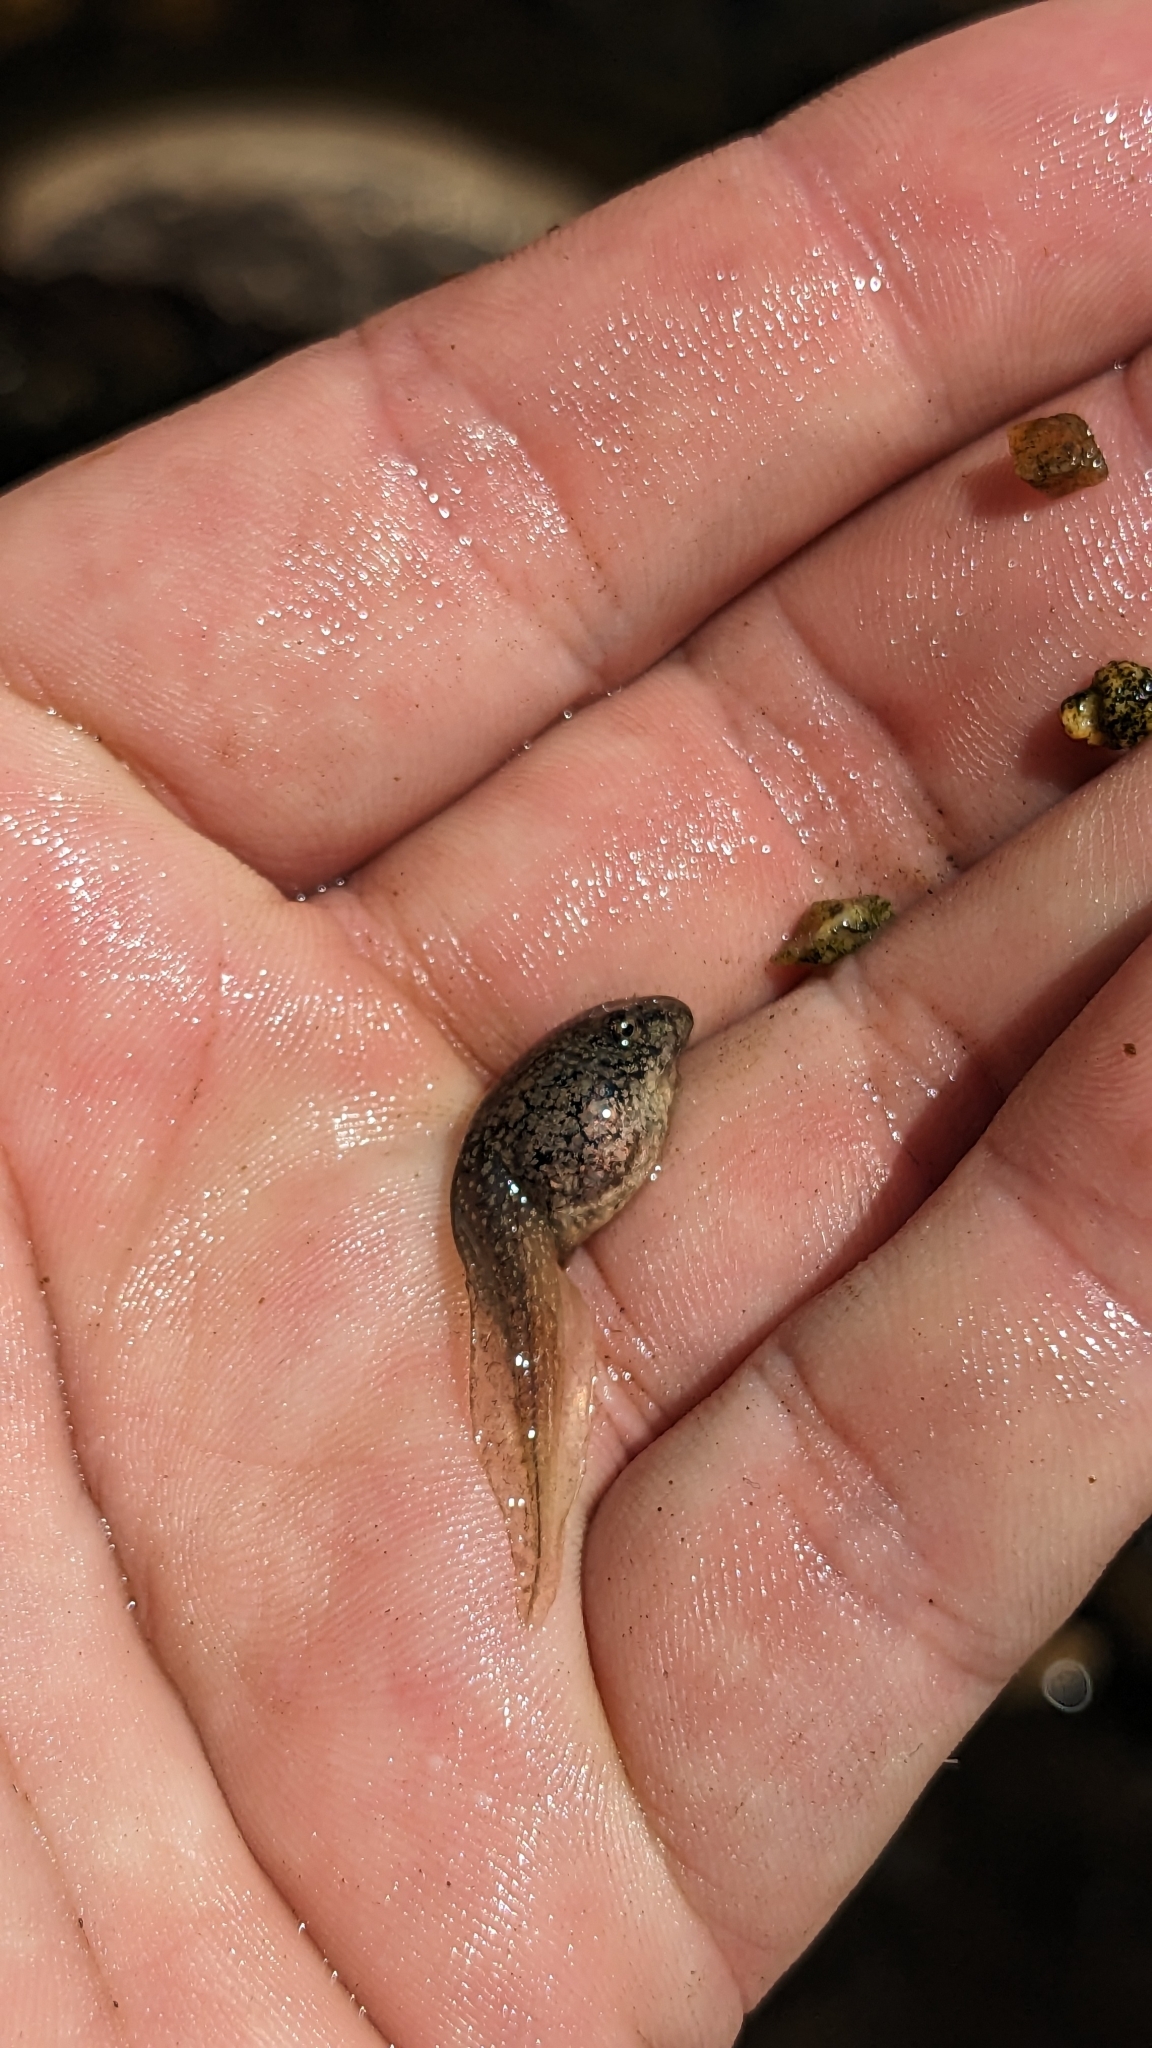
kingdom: Animalia
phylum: Chordata
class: Amphibia
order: Anura
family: Ranidae
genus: Lithobates
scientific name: Lithobates catesbeianus
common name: American bullfrog
